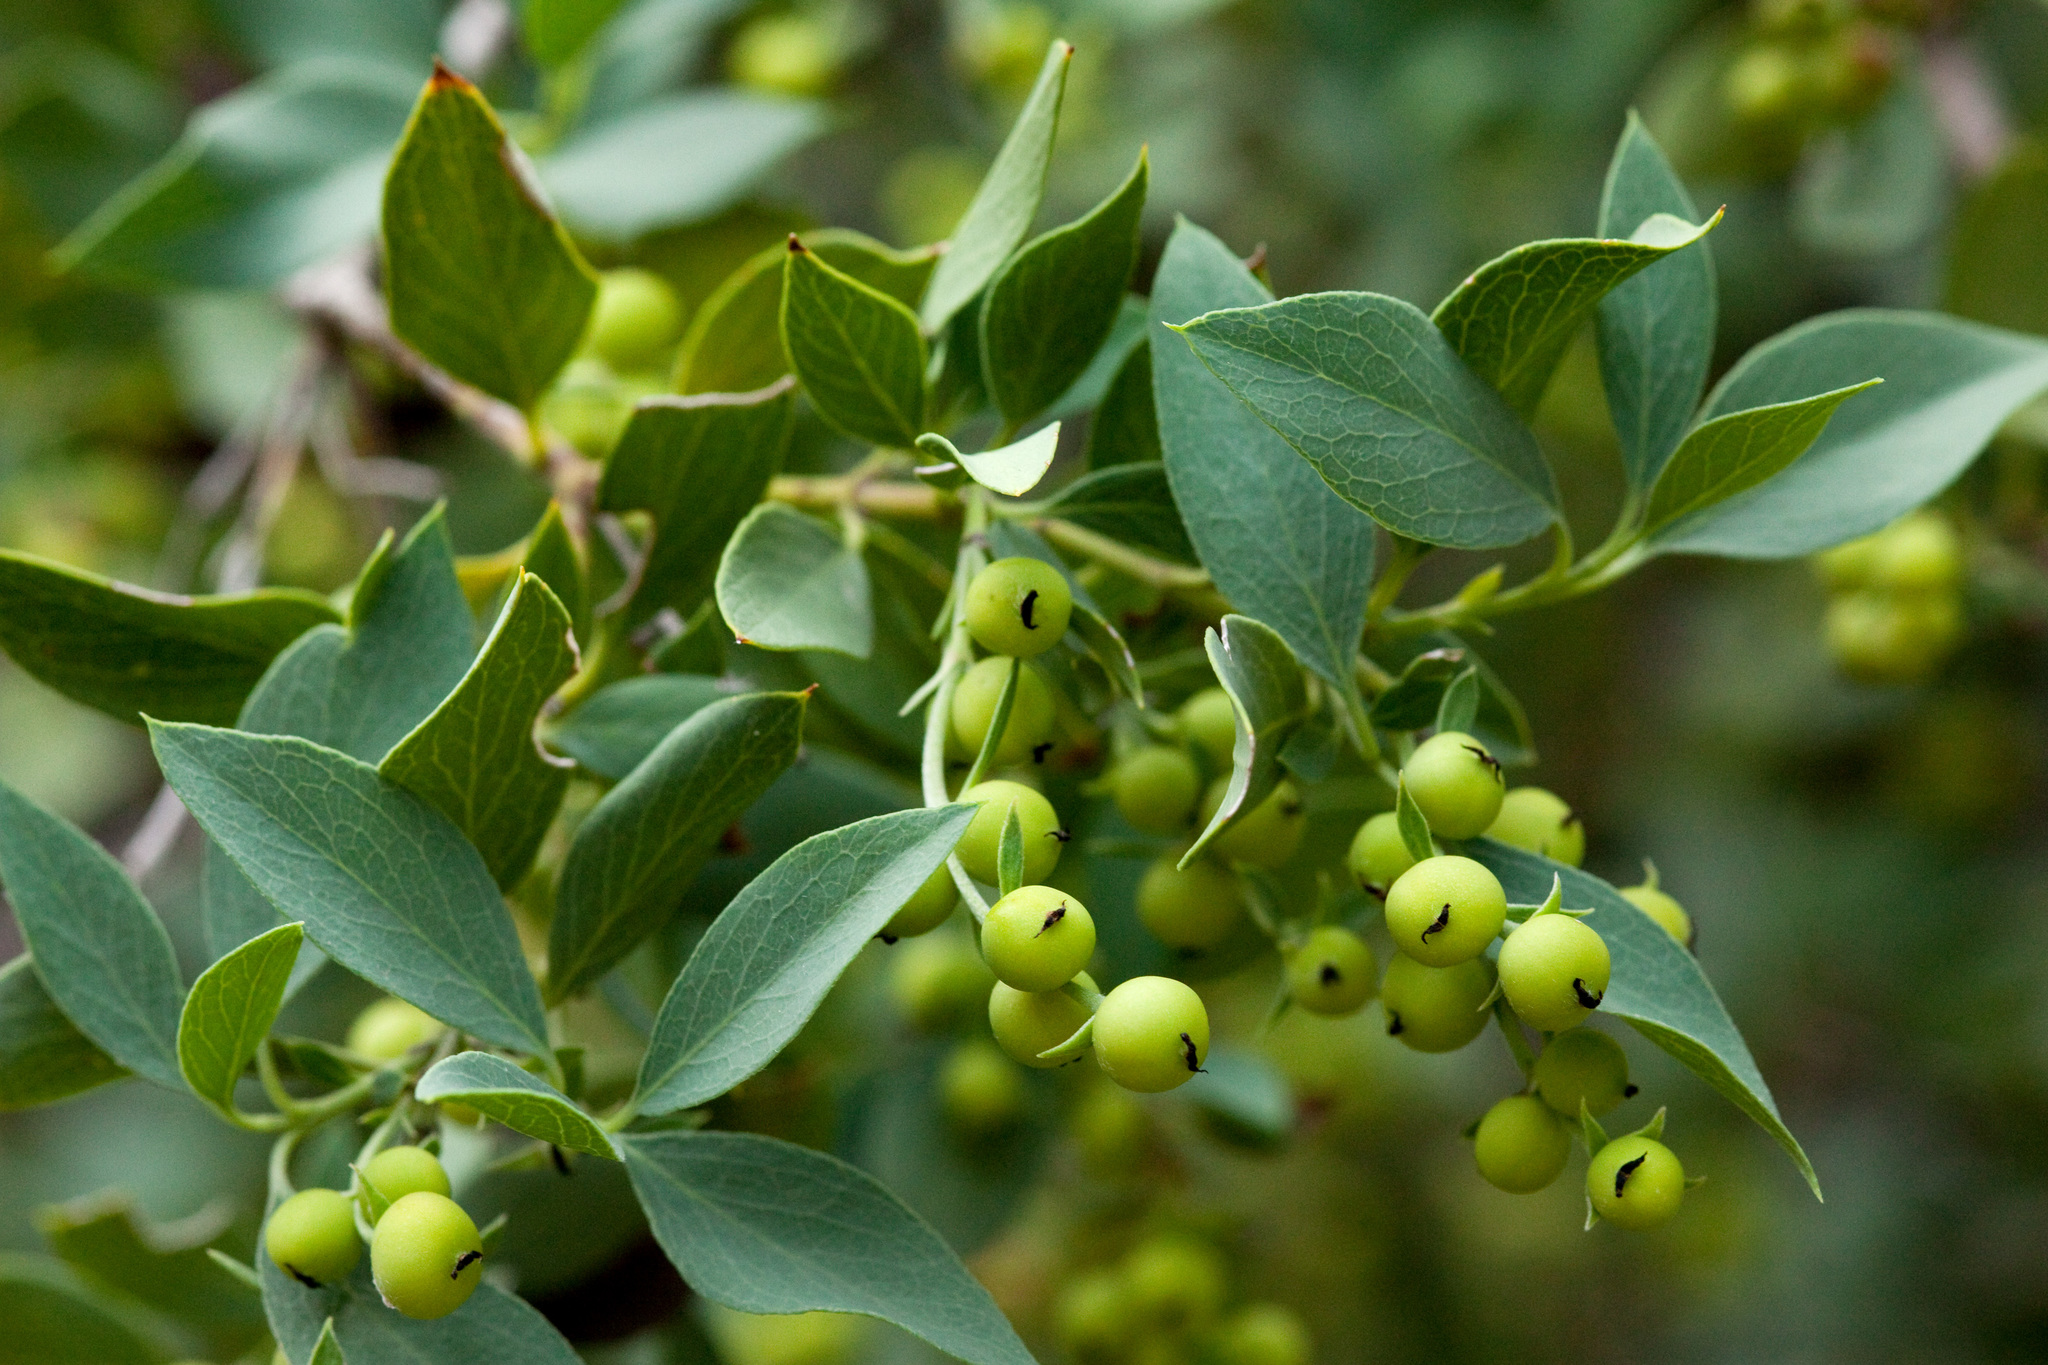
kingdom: Plantae
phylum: Tracheophyta
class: Magnoliopsida
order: Garryales
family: Garryaceae
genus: Garrya
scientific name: Garrya wrightii
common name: Wright's silktassel
